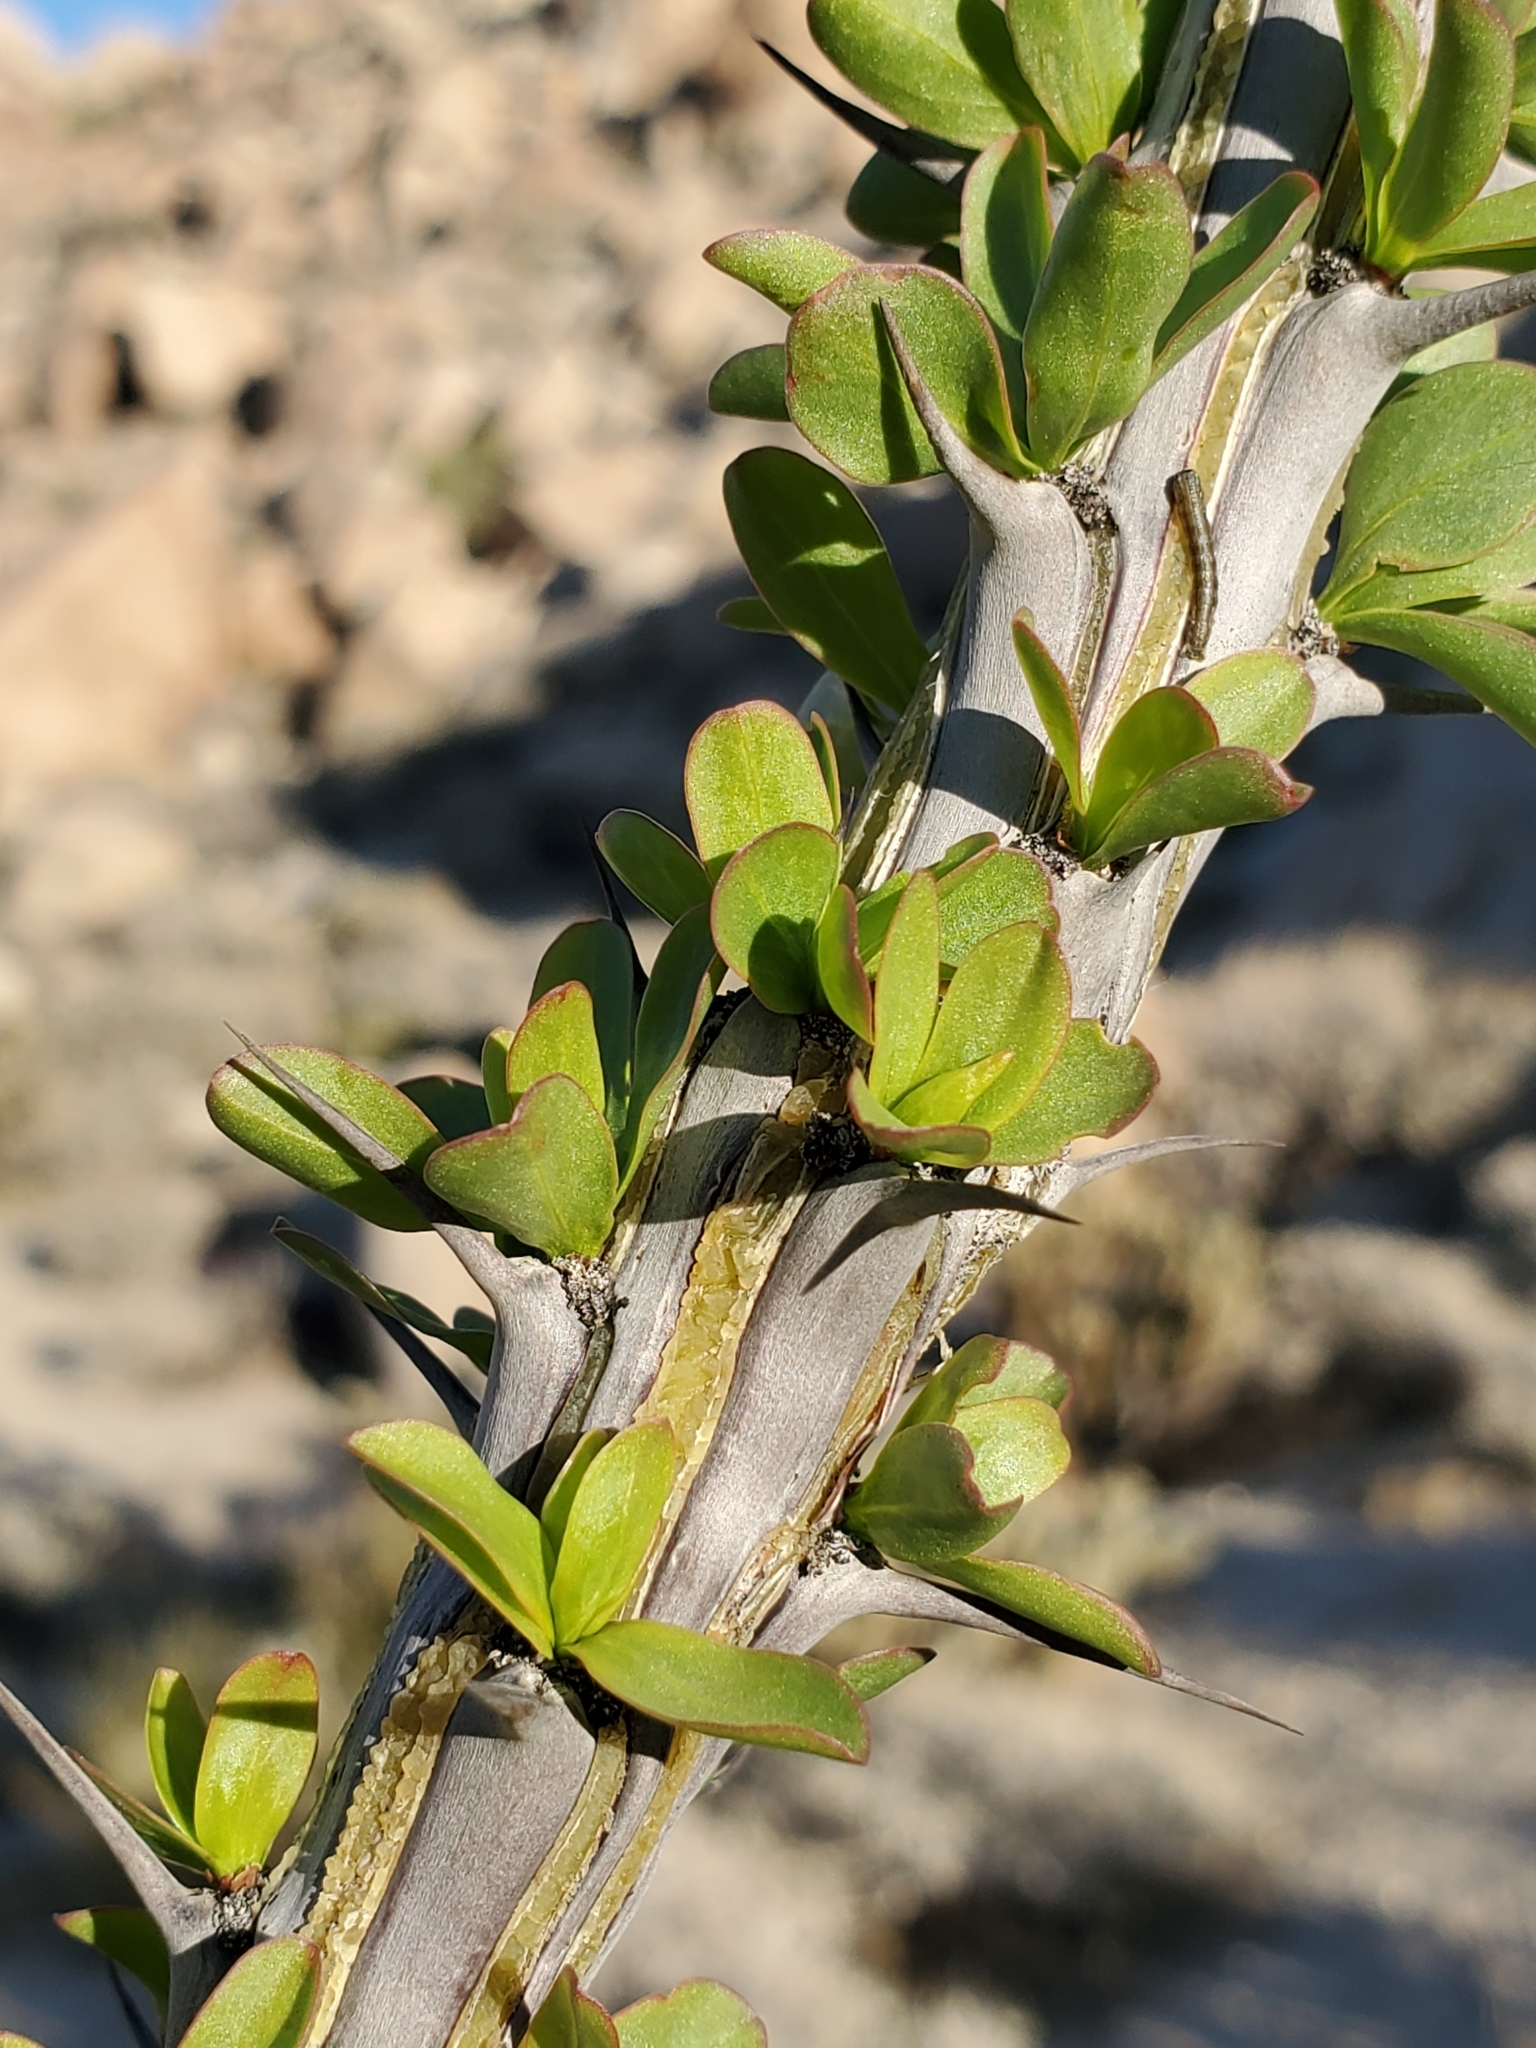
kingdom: Plantae
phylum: Tracheophyta
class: Magnoliopsida
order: Ericales
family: Fouquieriaceae
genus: Fouquieria
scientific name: Fouquieria splendens
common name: Vine-cactus
